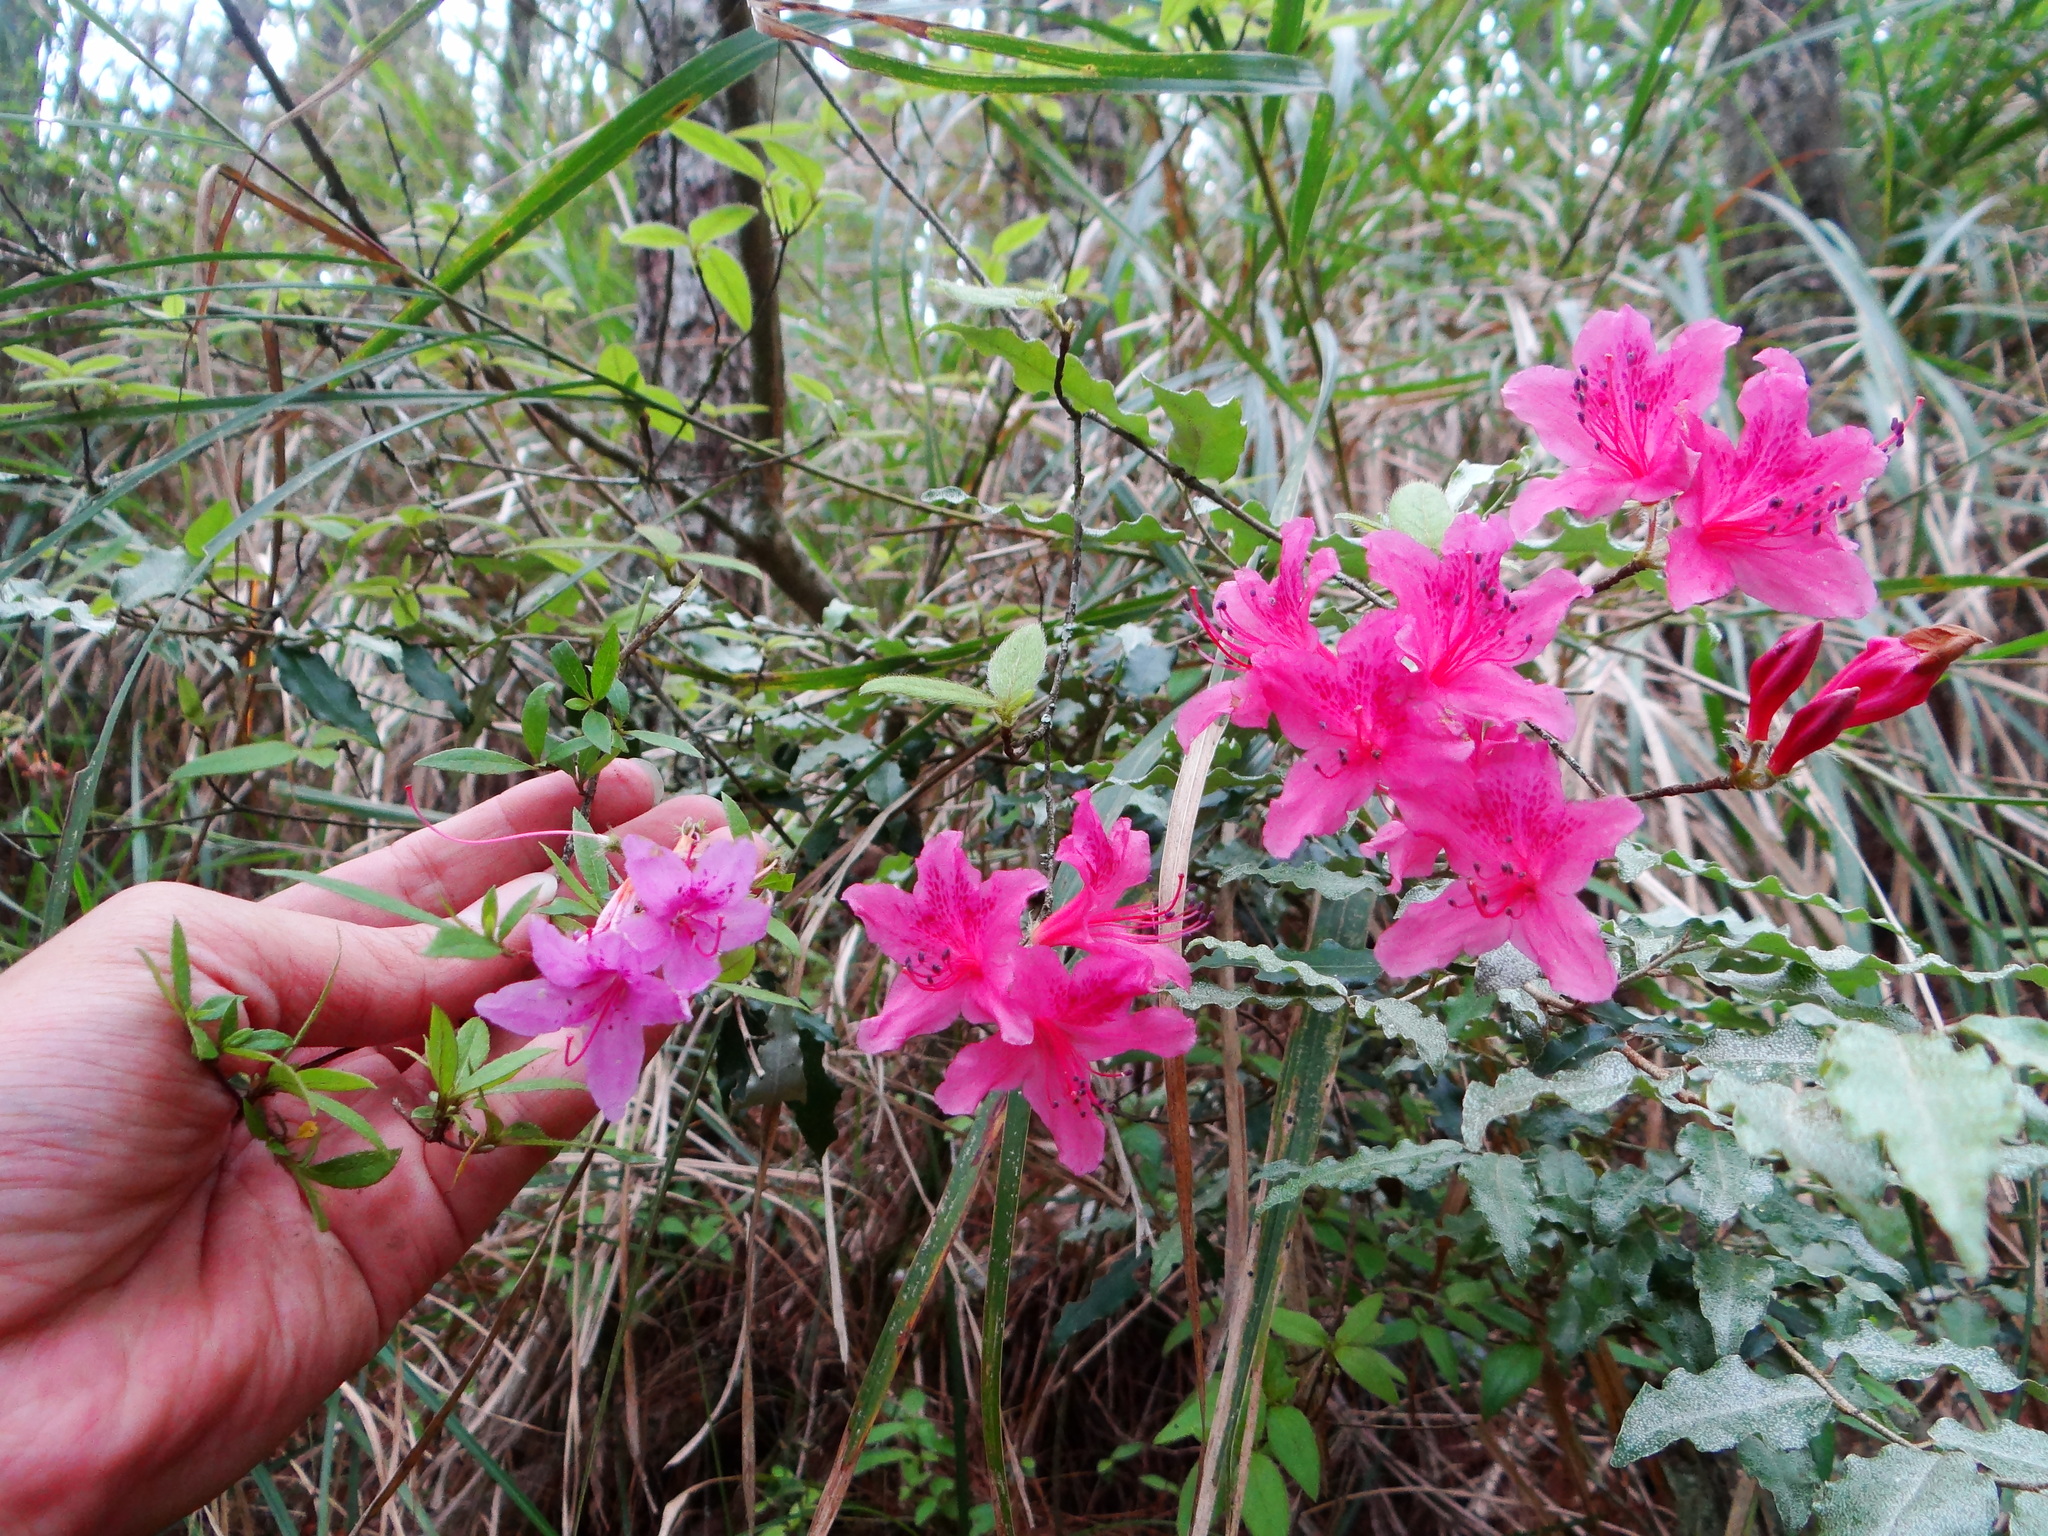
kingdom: Plantae
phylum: Tracheophyta
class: Magnoliopsida
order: Ericales
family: Ericaceae
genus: Rhododendron
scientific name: Rhododendron breviperulatum
